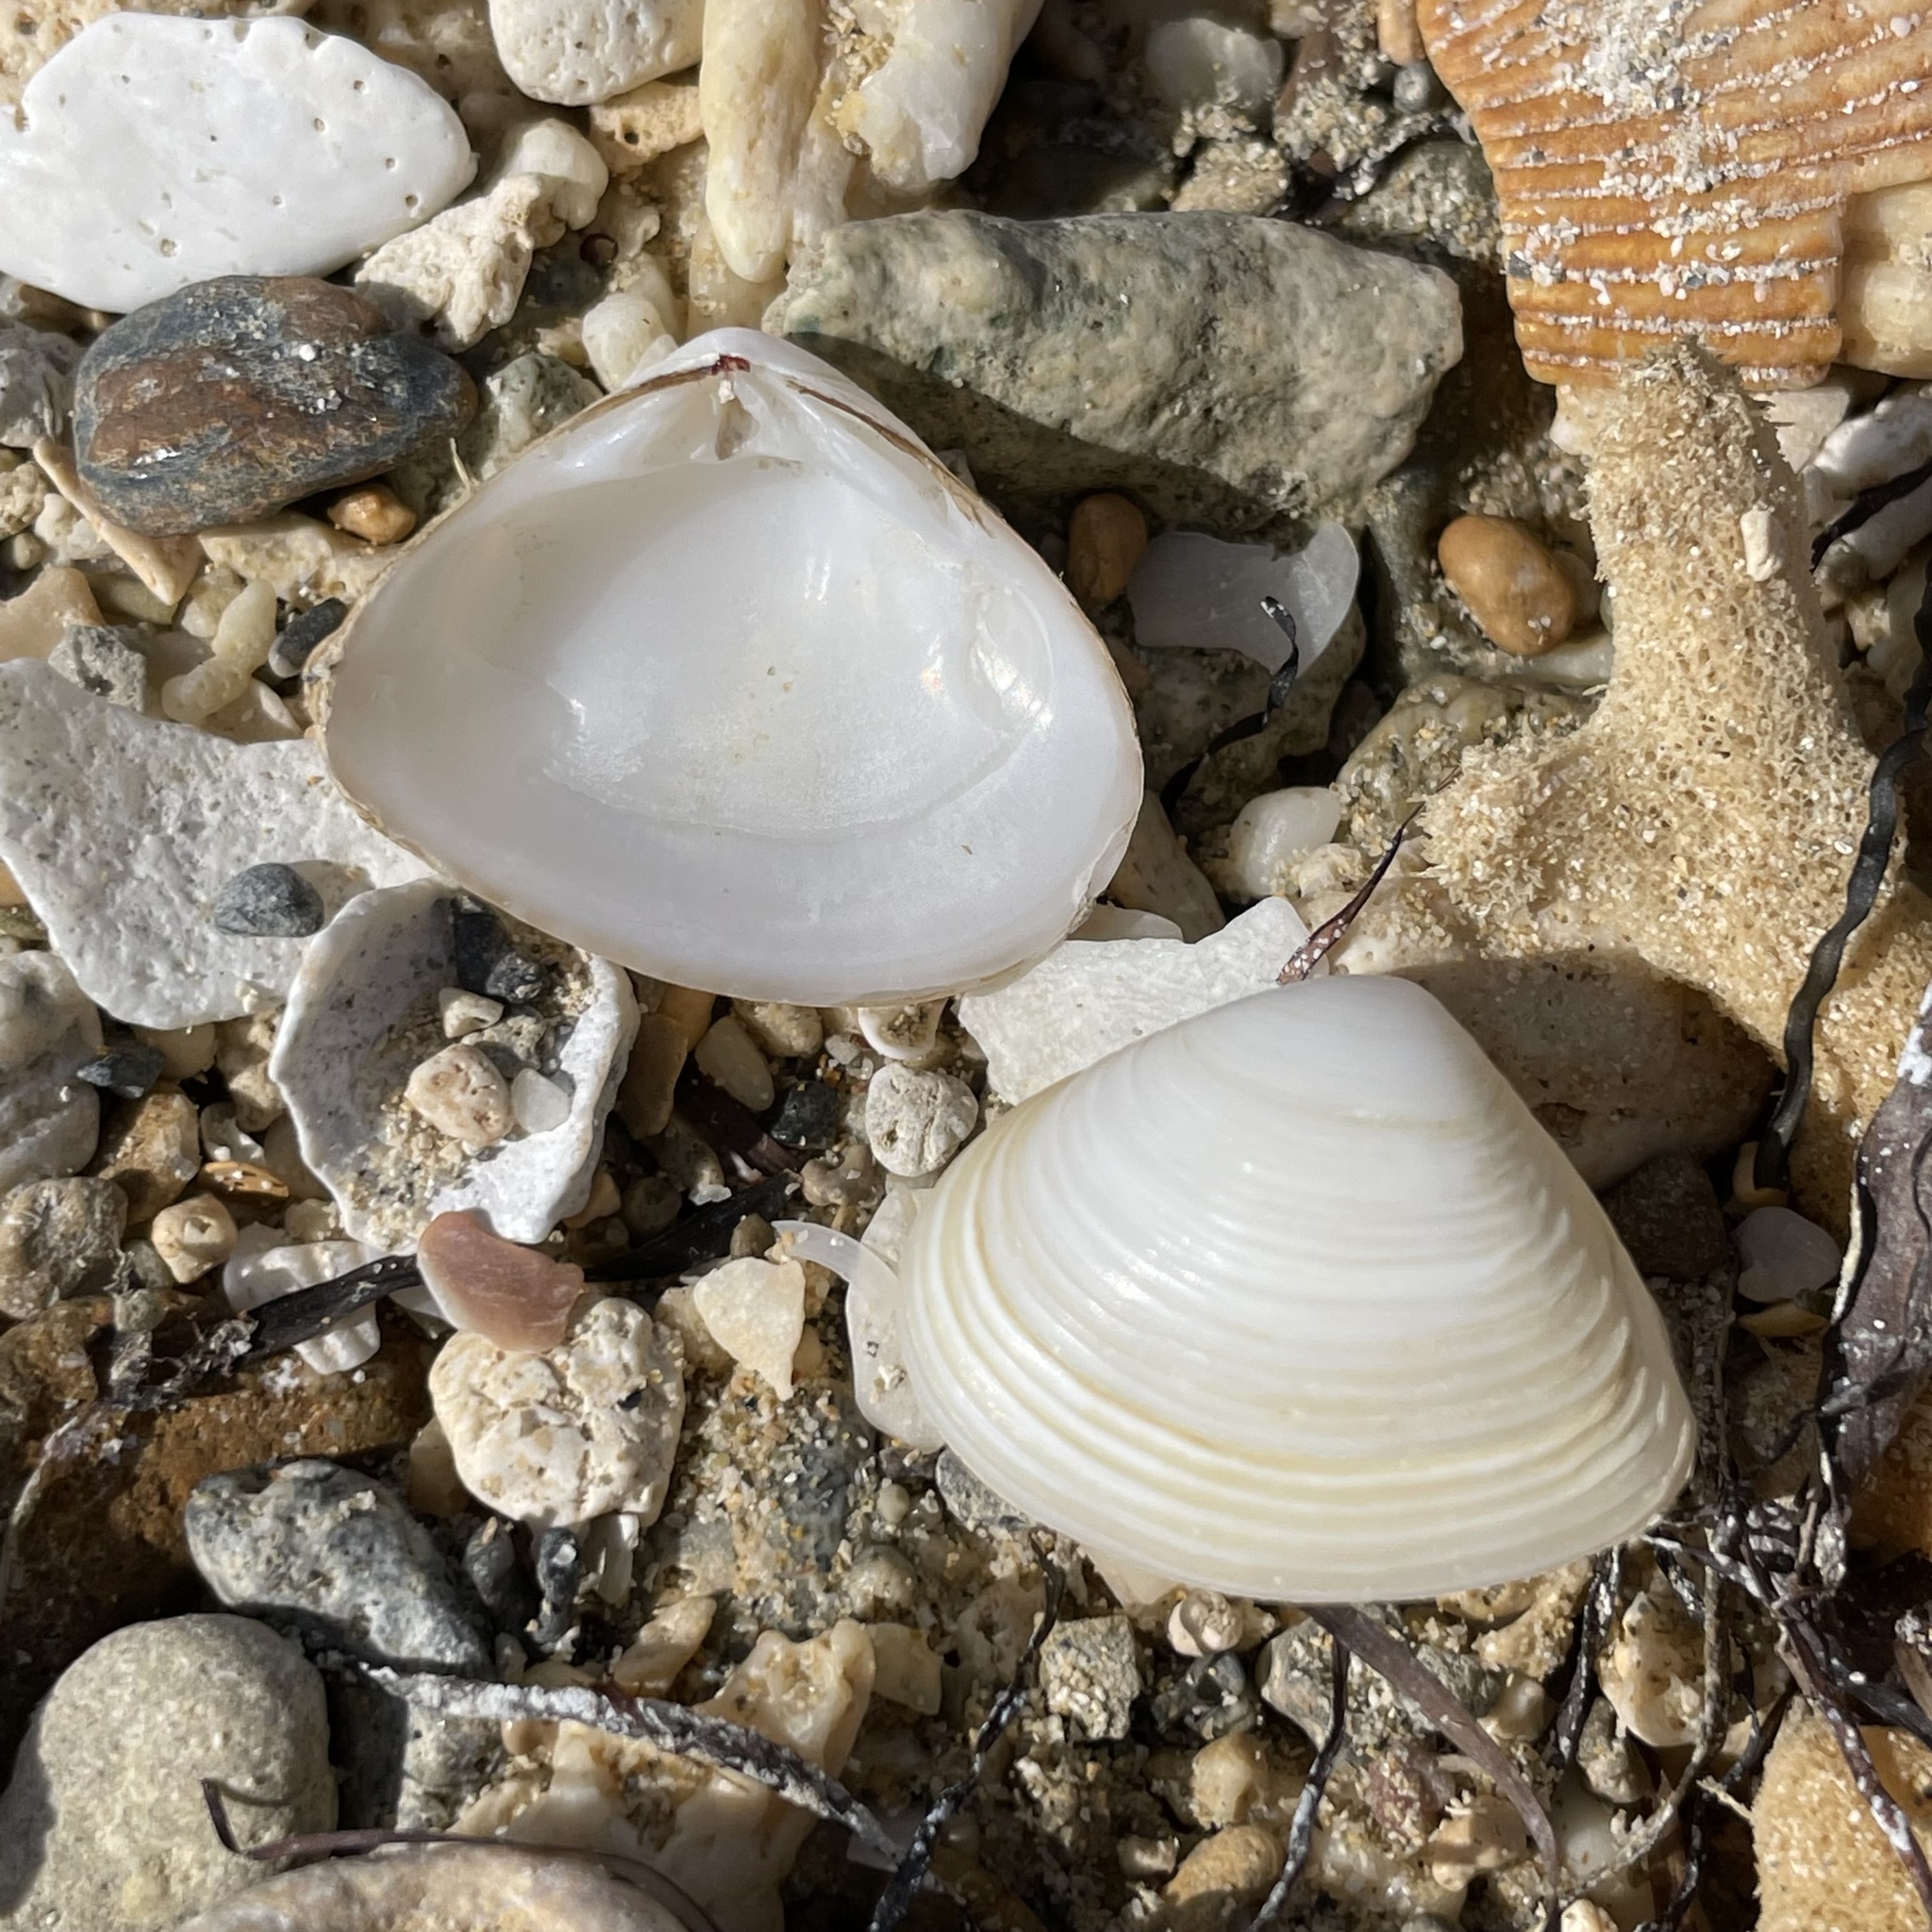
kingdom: Animalia
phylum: Mollusca
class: Bivalvia
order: Venerida
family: Mesodesmatidae
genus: Atactodea
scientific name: Atactodea striata
